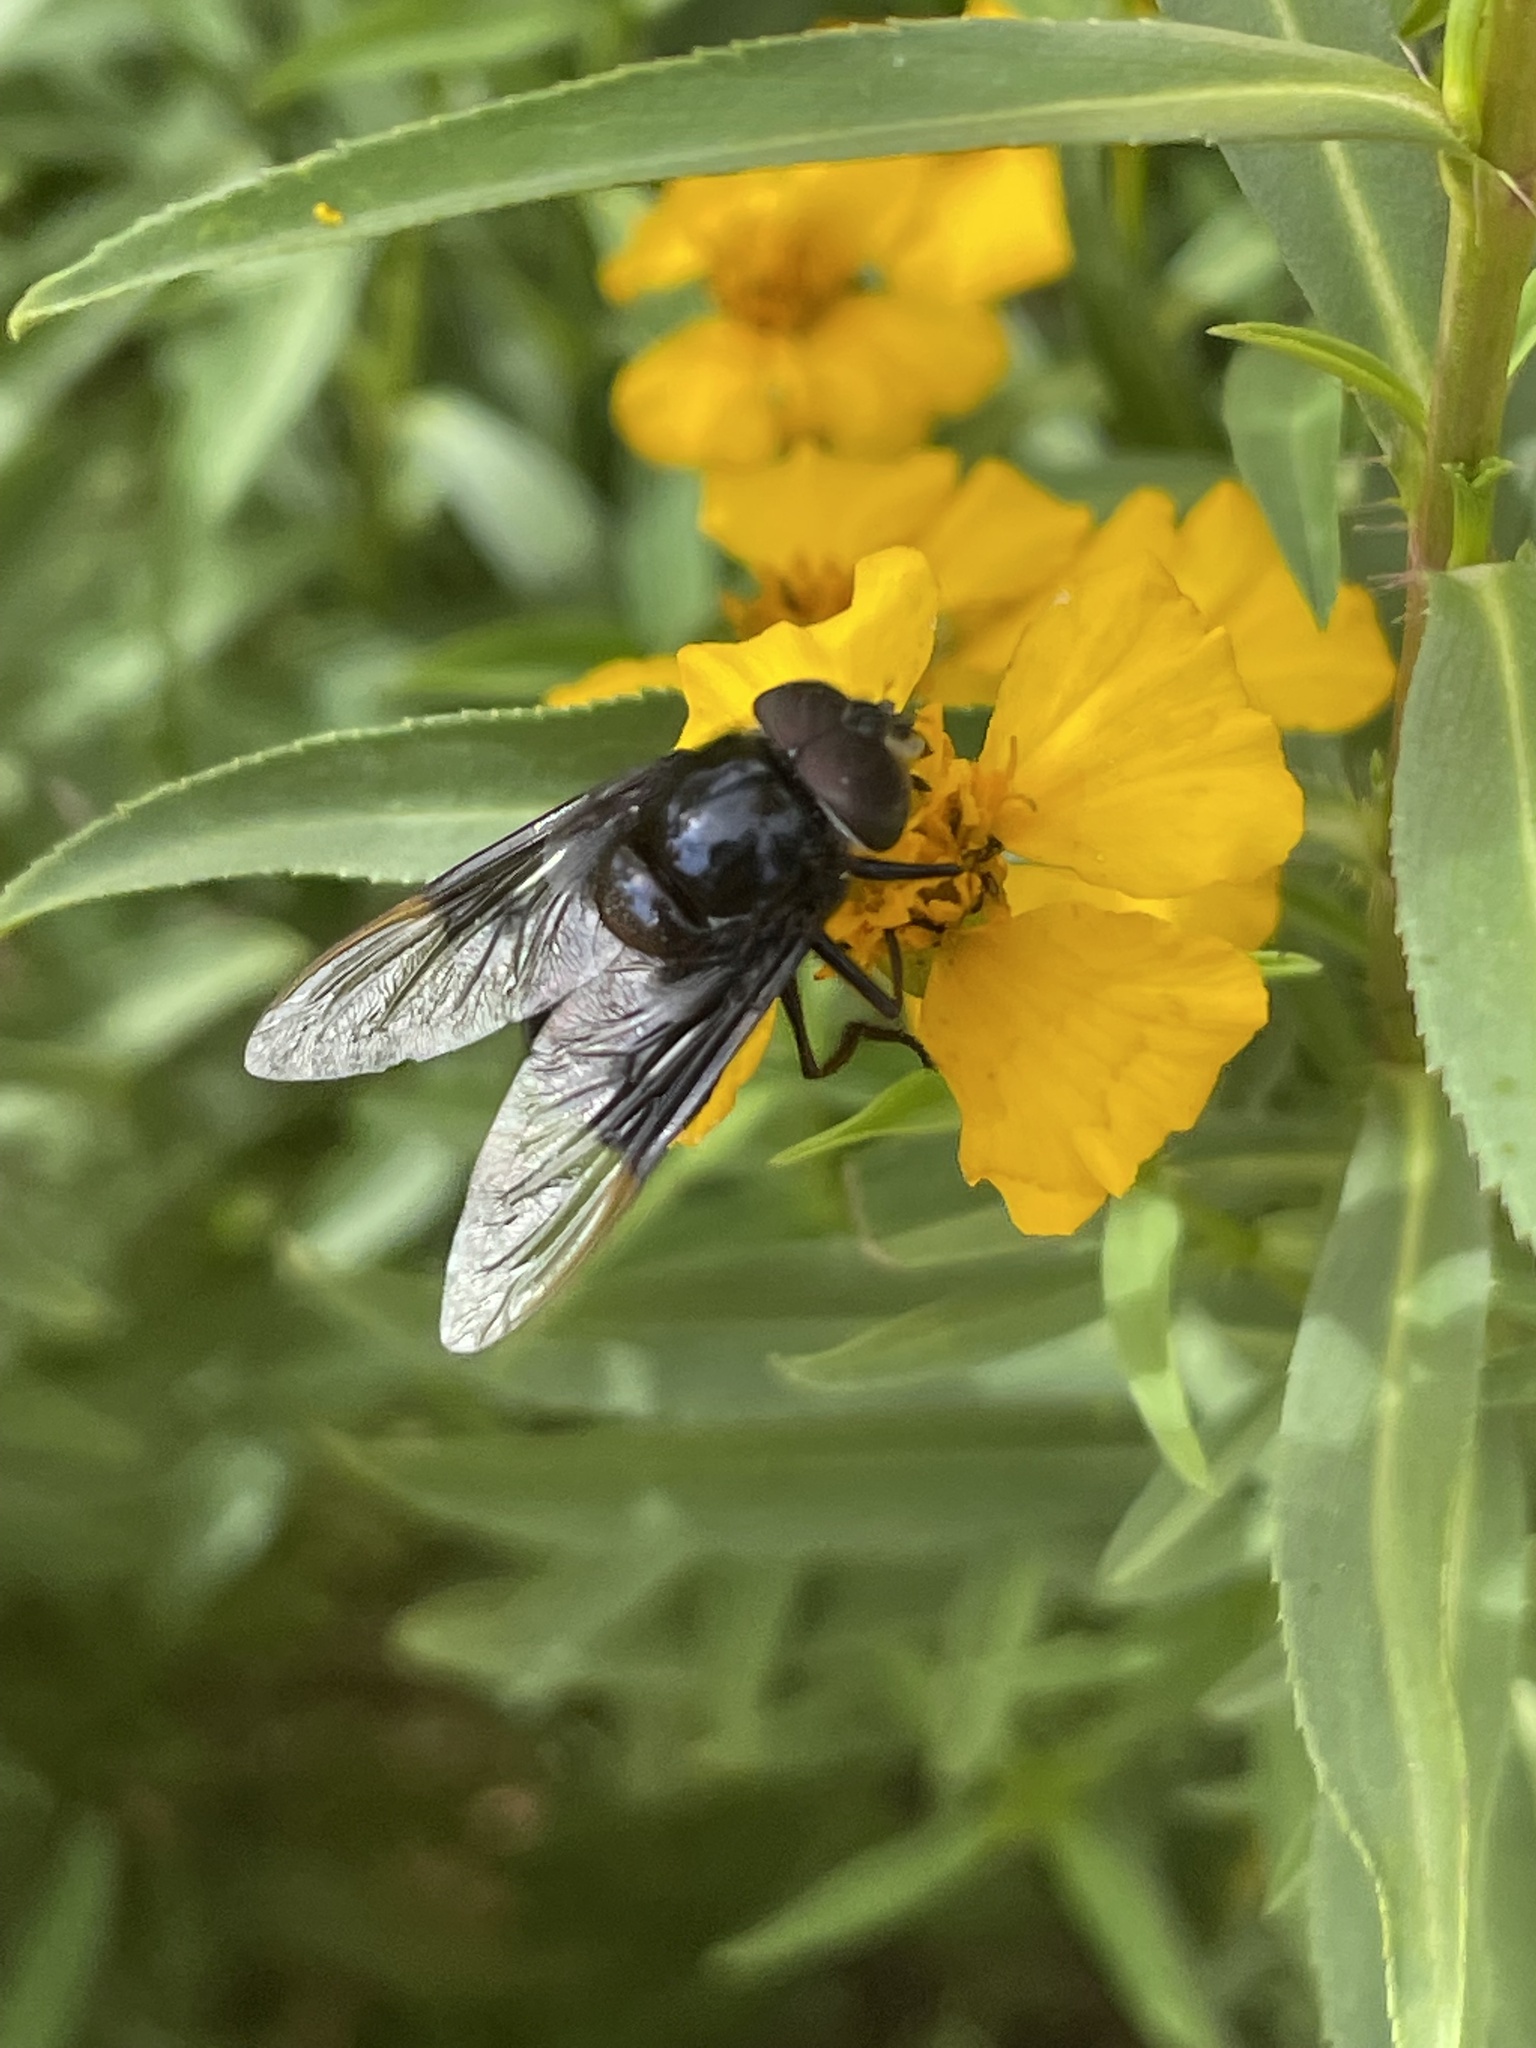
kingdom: Animalia
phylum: Arthropoda
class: Insecta
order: Diptera
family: Syrphidae
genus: Copestylum
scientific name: Copestylum
